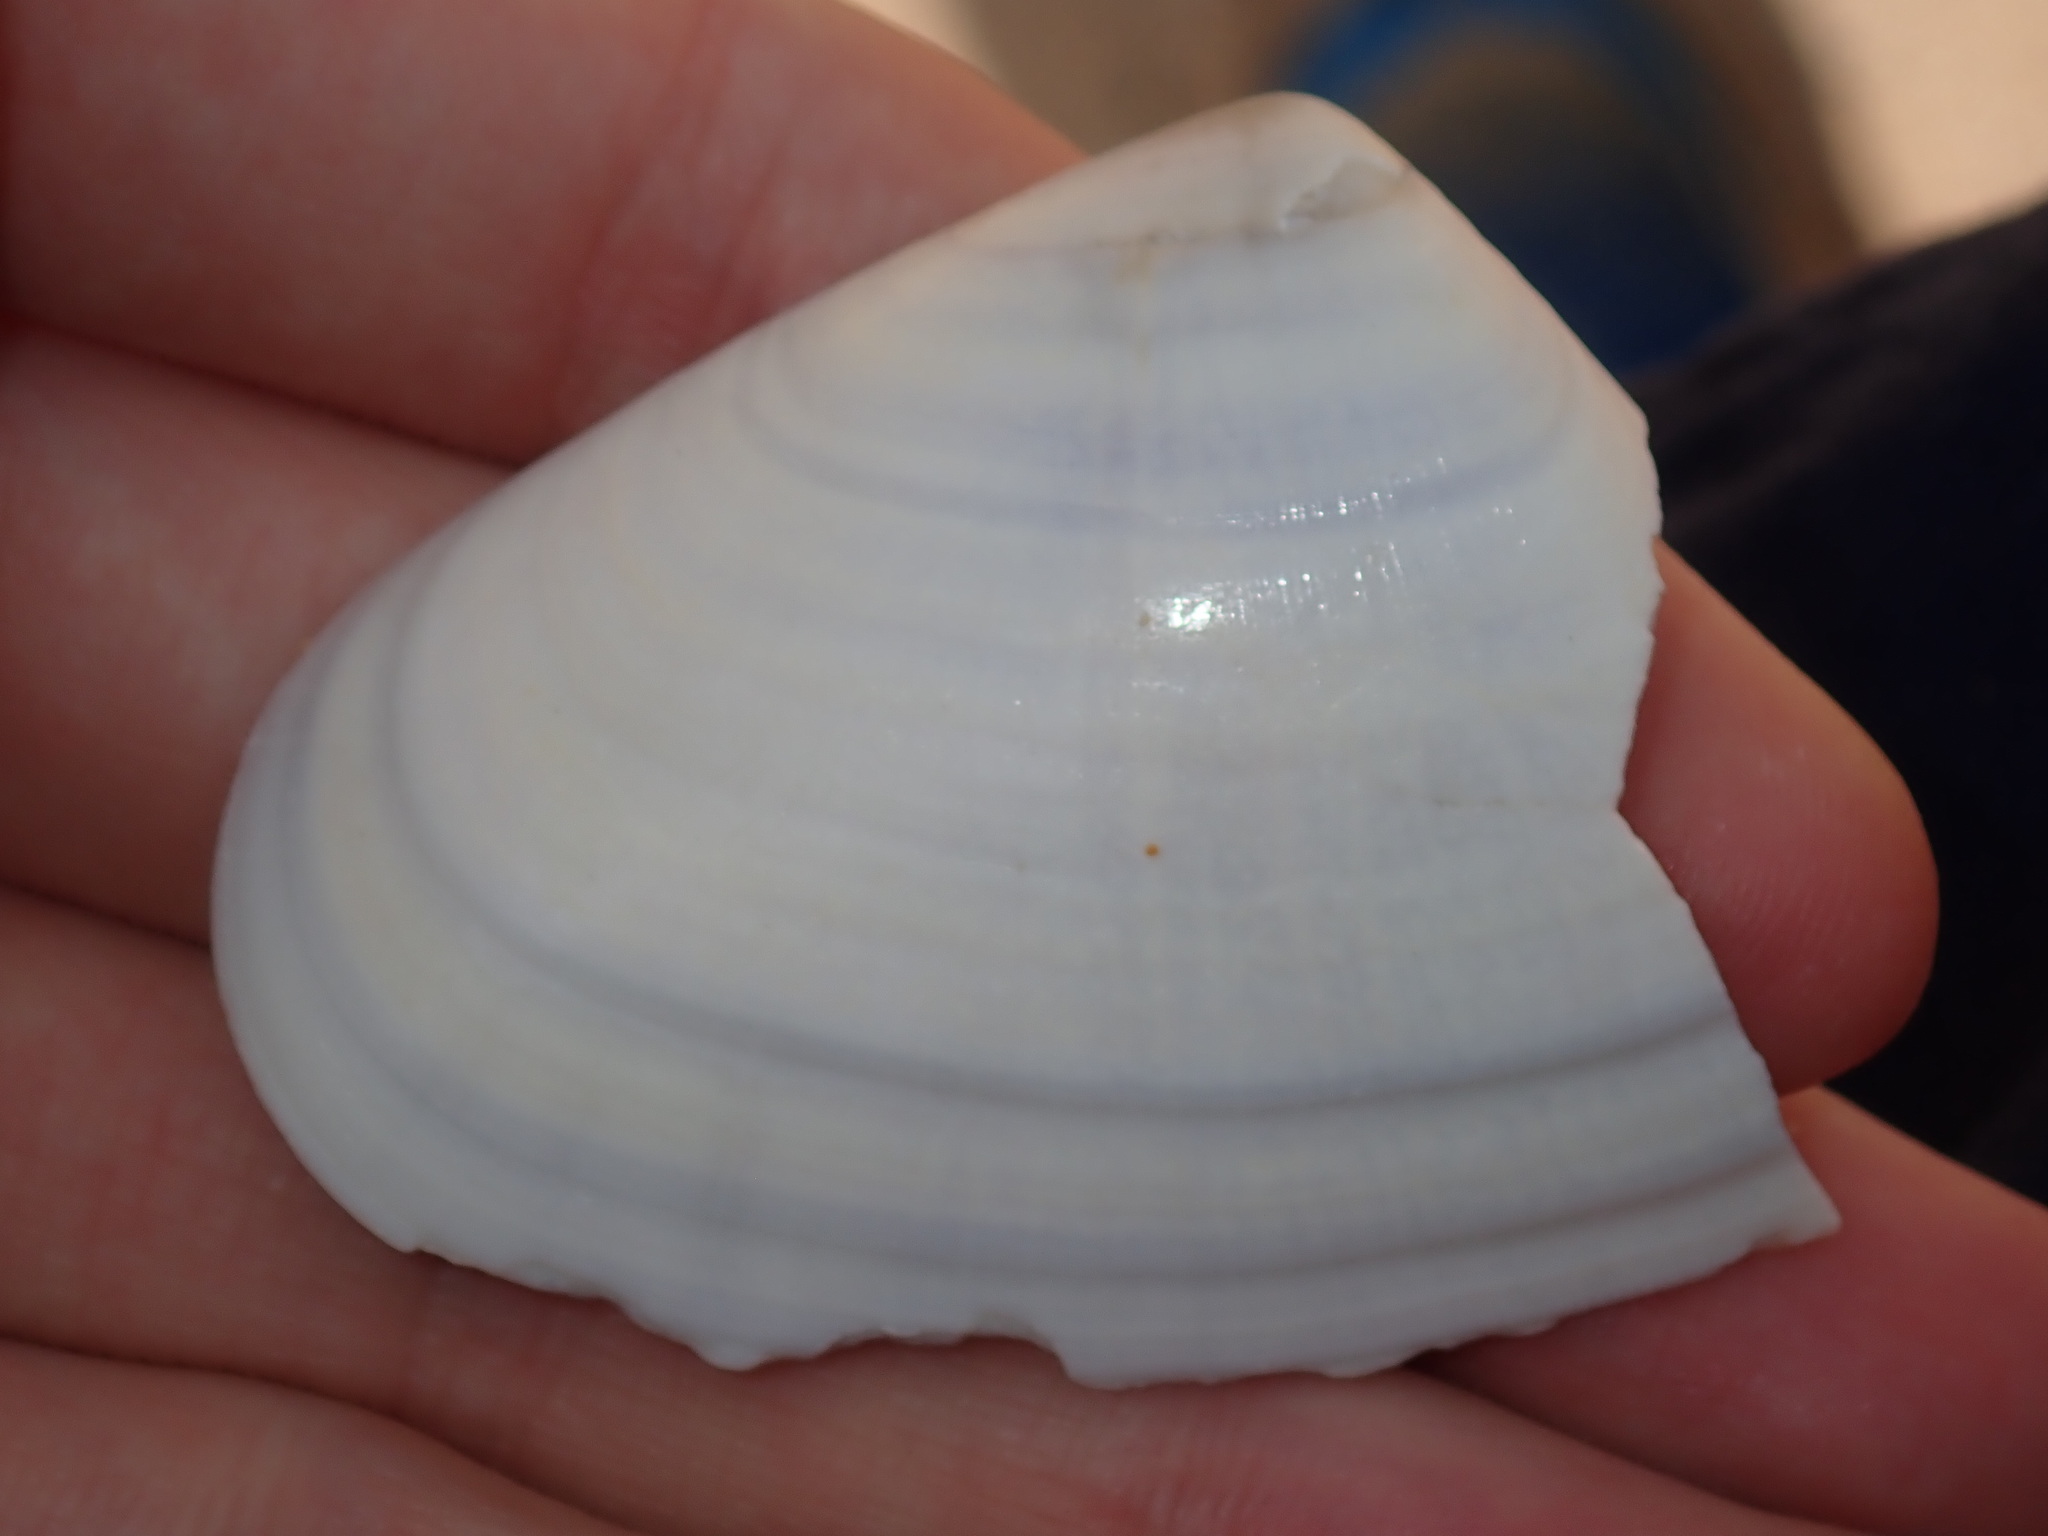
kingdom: Animalia
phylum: Mollusca
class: Bivalvia
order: Cardiida
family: Donacidae
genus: Latona
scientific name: Latona deltoides
